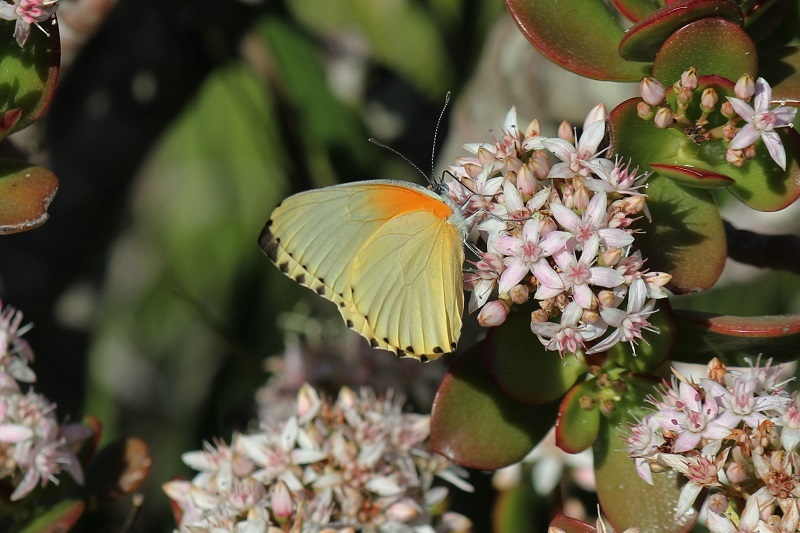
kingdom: Animalia
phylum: Arthropoda
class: Insecta
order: Lepidoptera
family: Pieridae
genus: Mylothris
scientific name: Mylothris agathina
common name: Eastern dotted border
